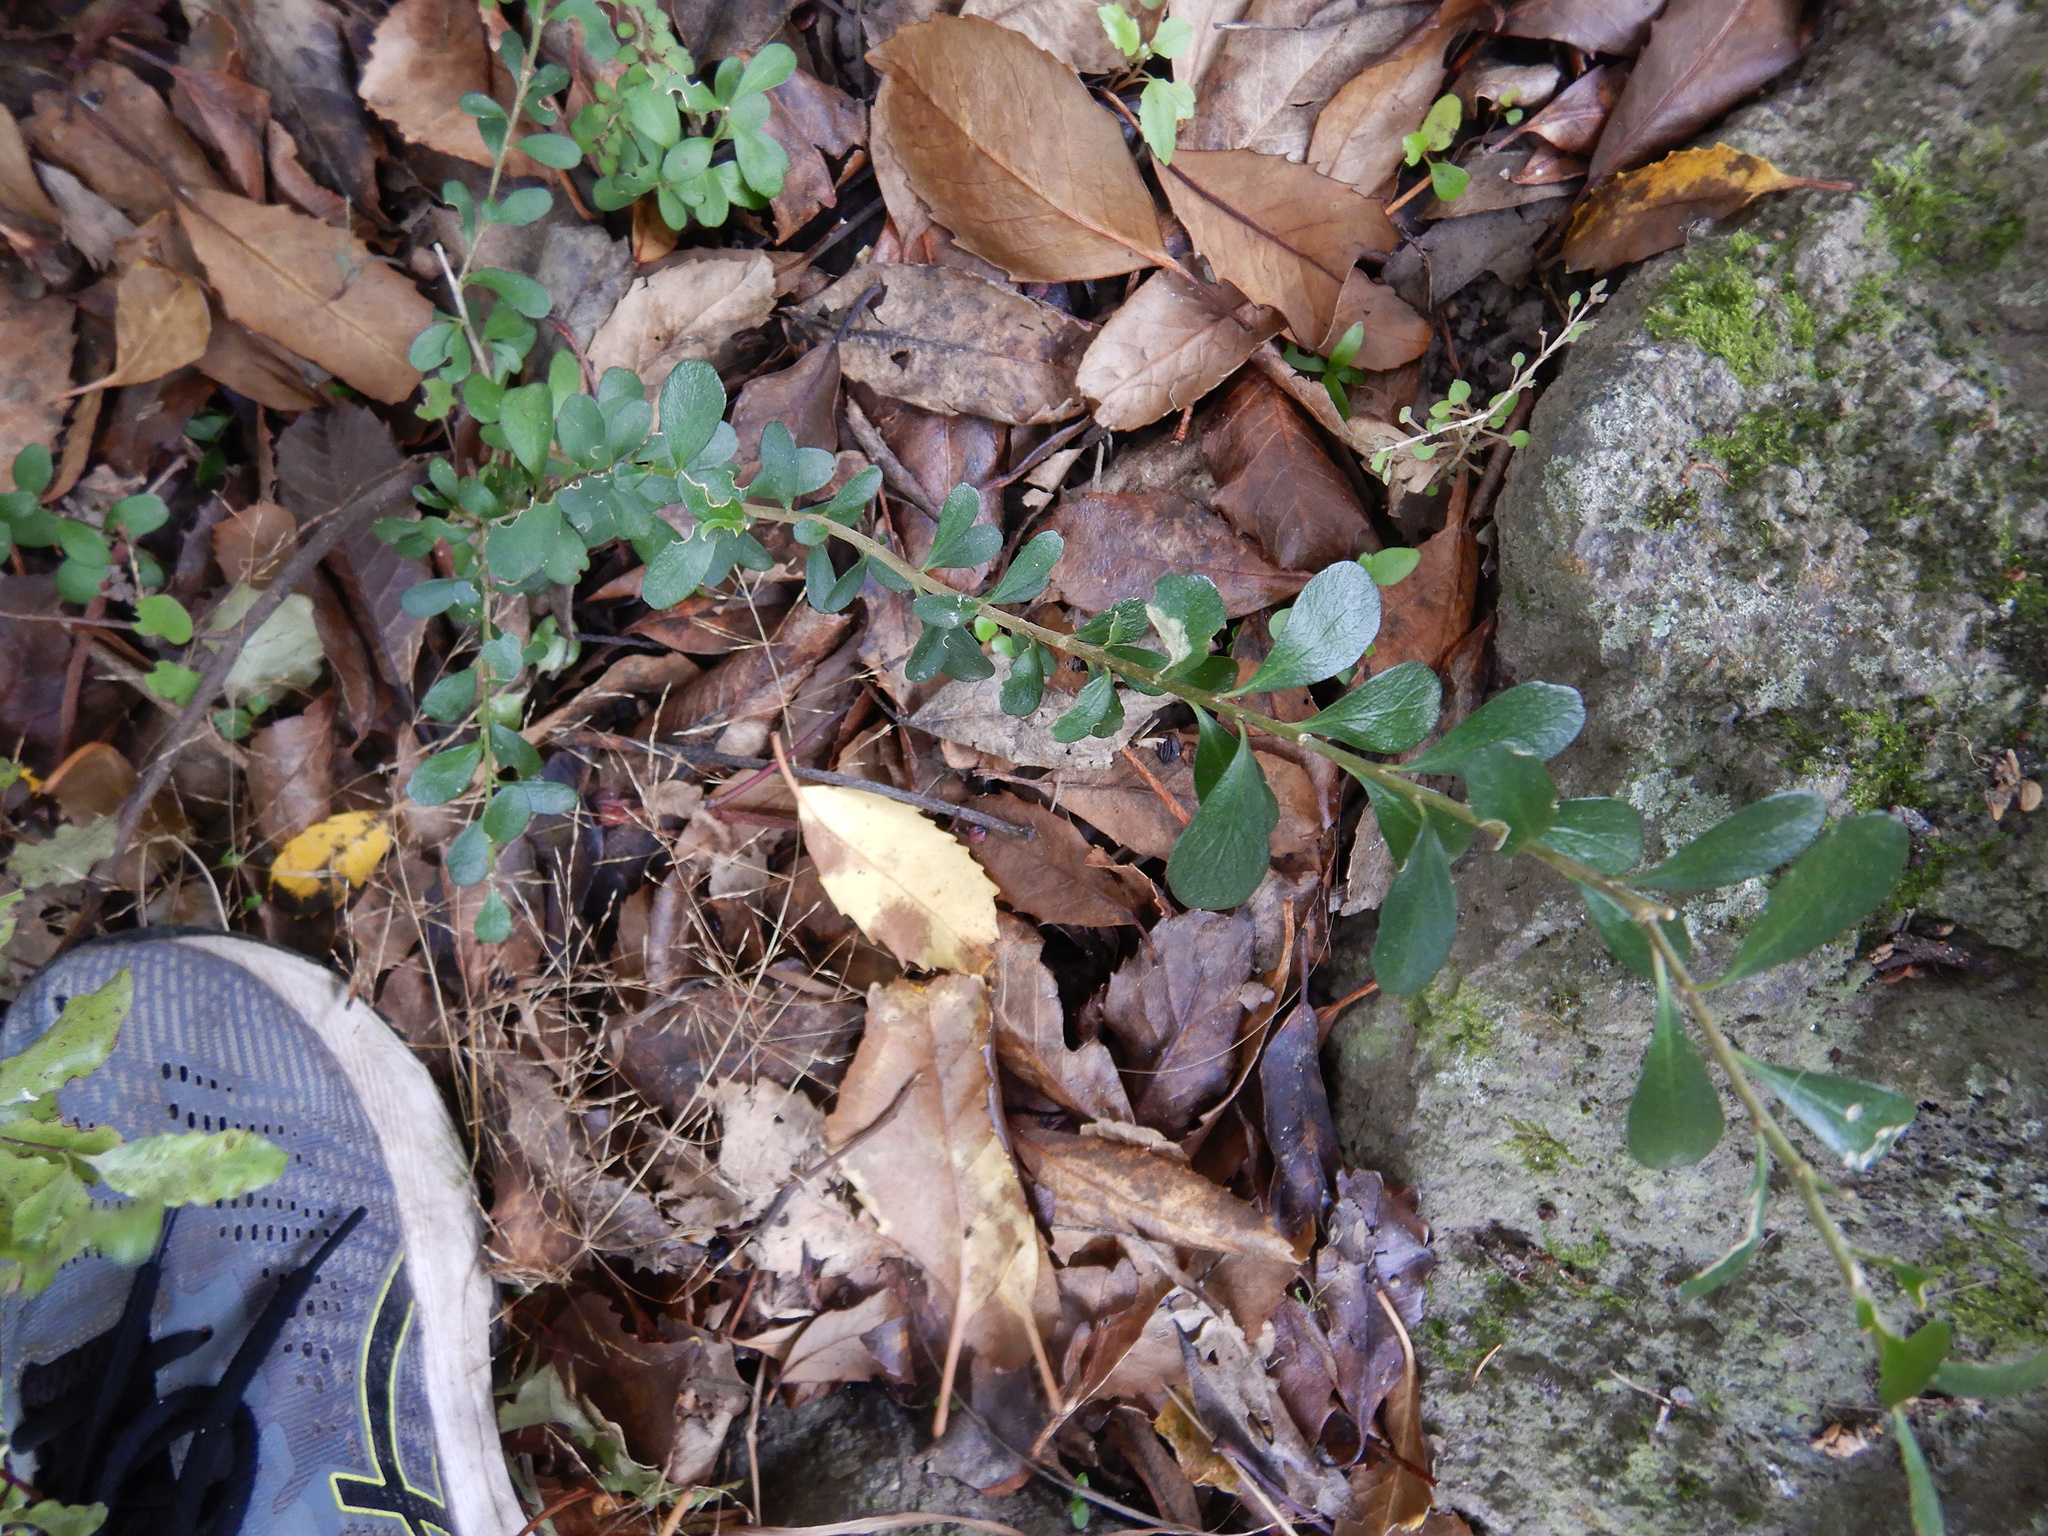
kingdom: Plantae
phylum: Tracheophyta
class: Magnoliopsida
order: Malpighiales
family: Violaceae
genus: Melicytus
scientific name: Melicytus obovatus
